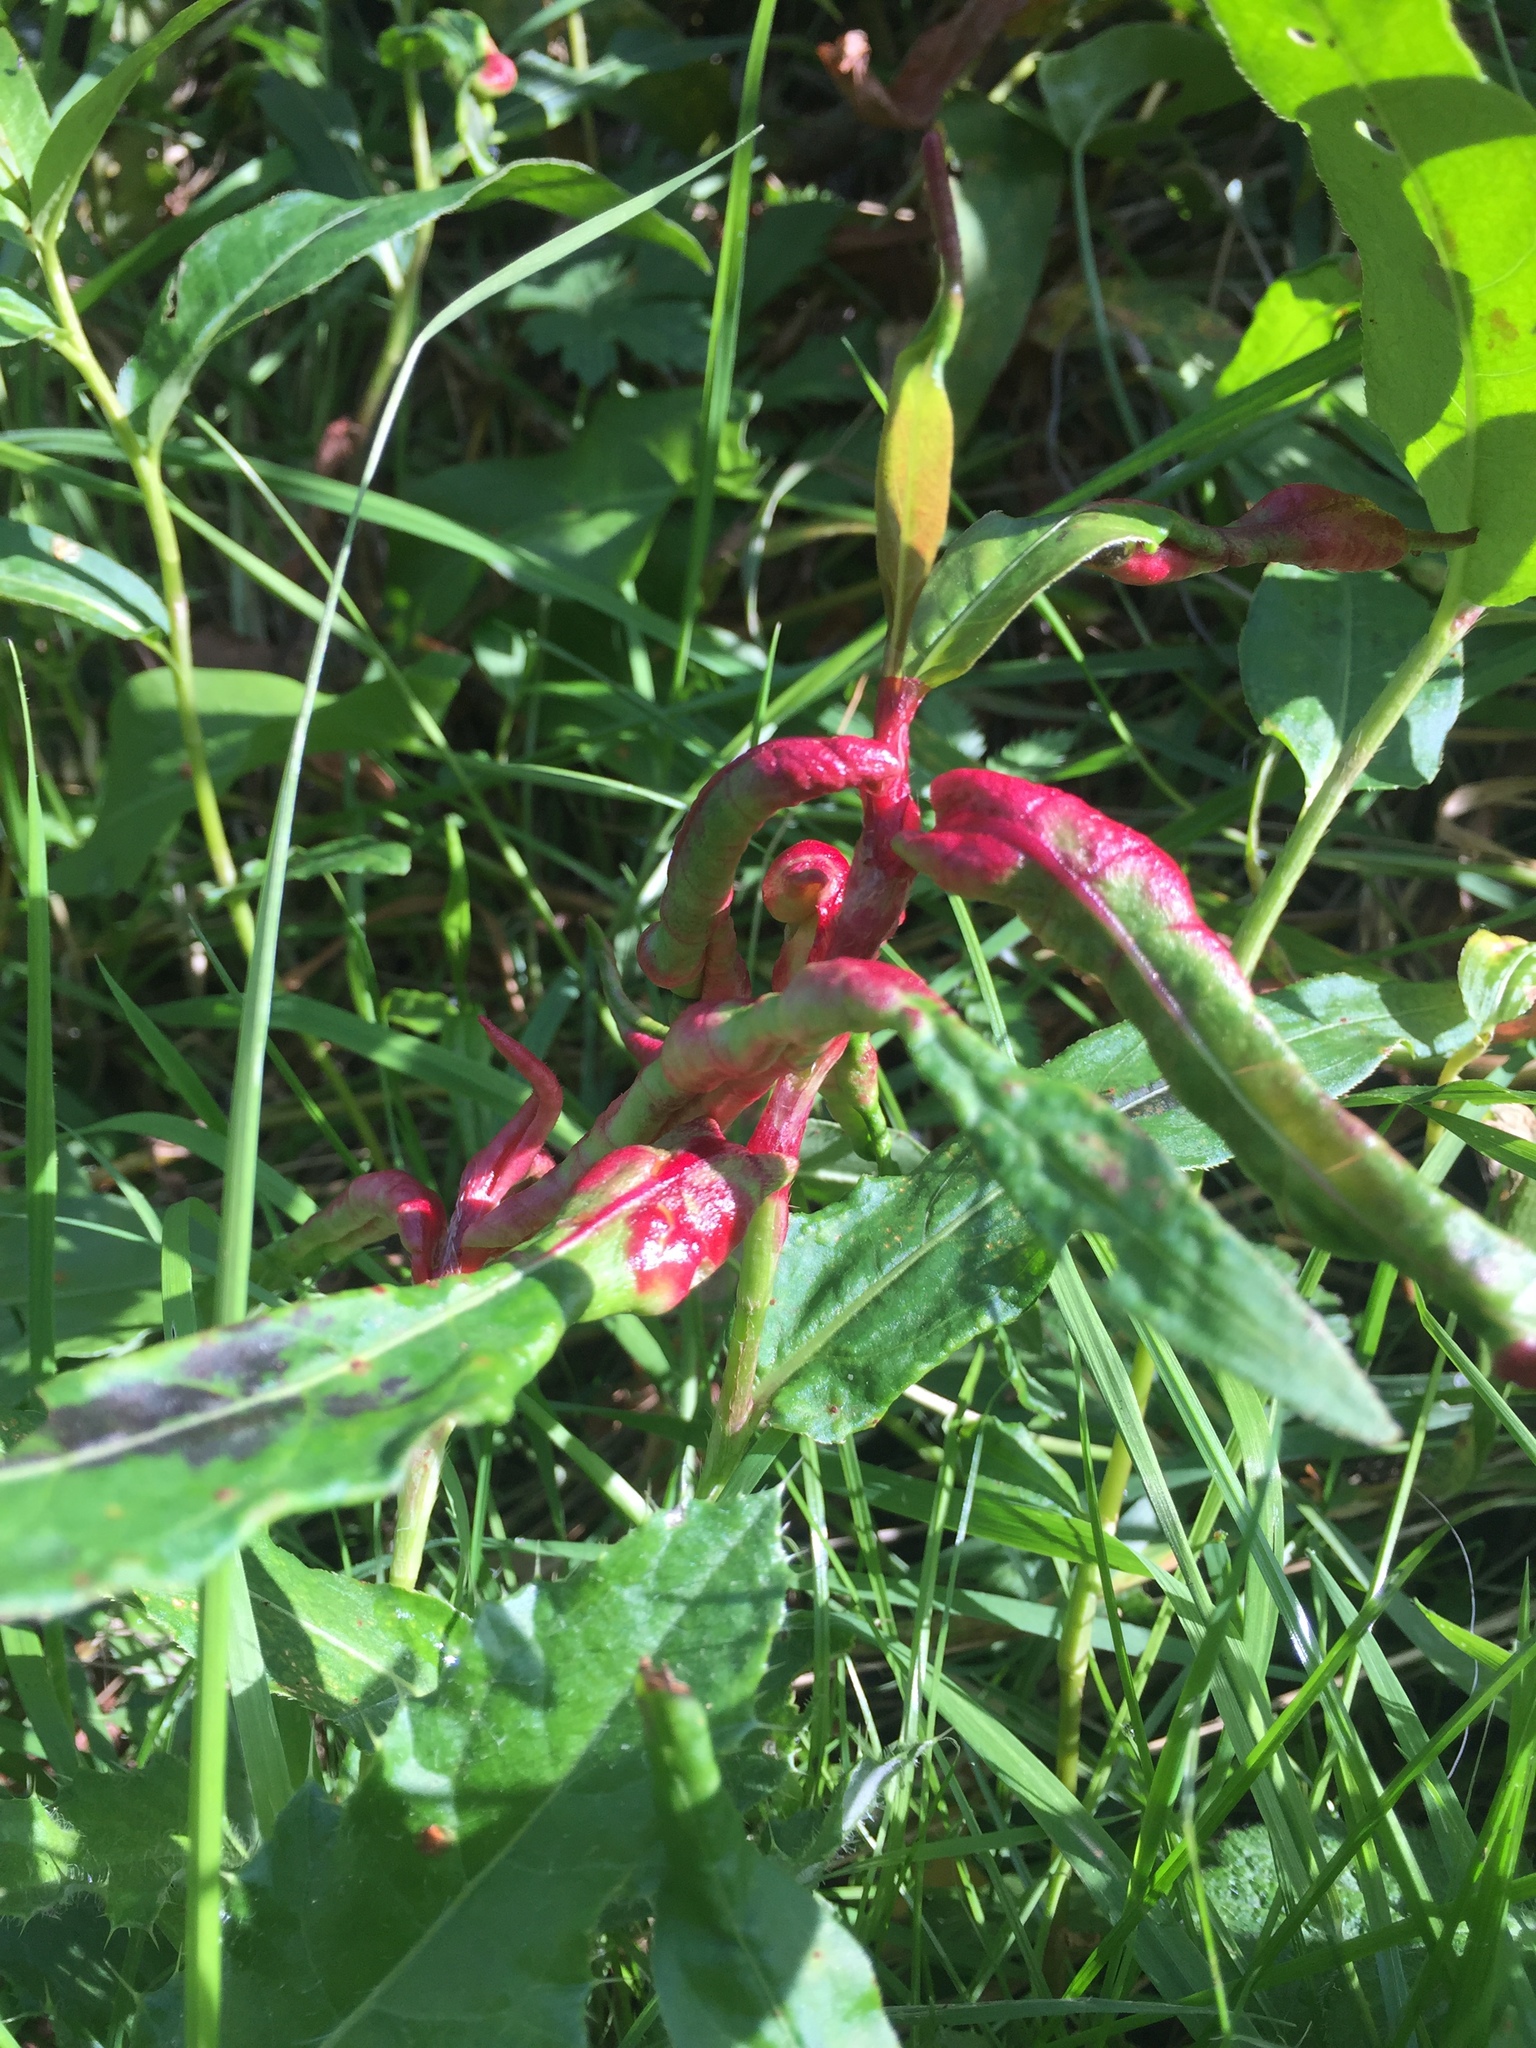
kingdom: Animalia
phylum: Arthropoda
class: Insecta
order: Diptera
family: Cecidomyiidae
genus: Wachtliella
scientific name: Wachtliella persicariae
